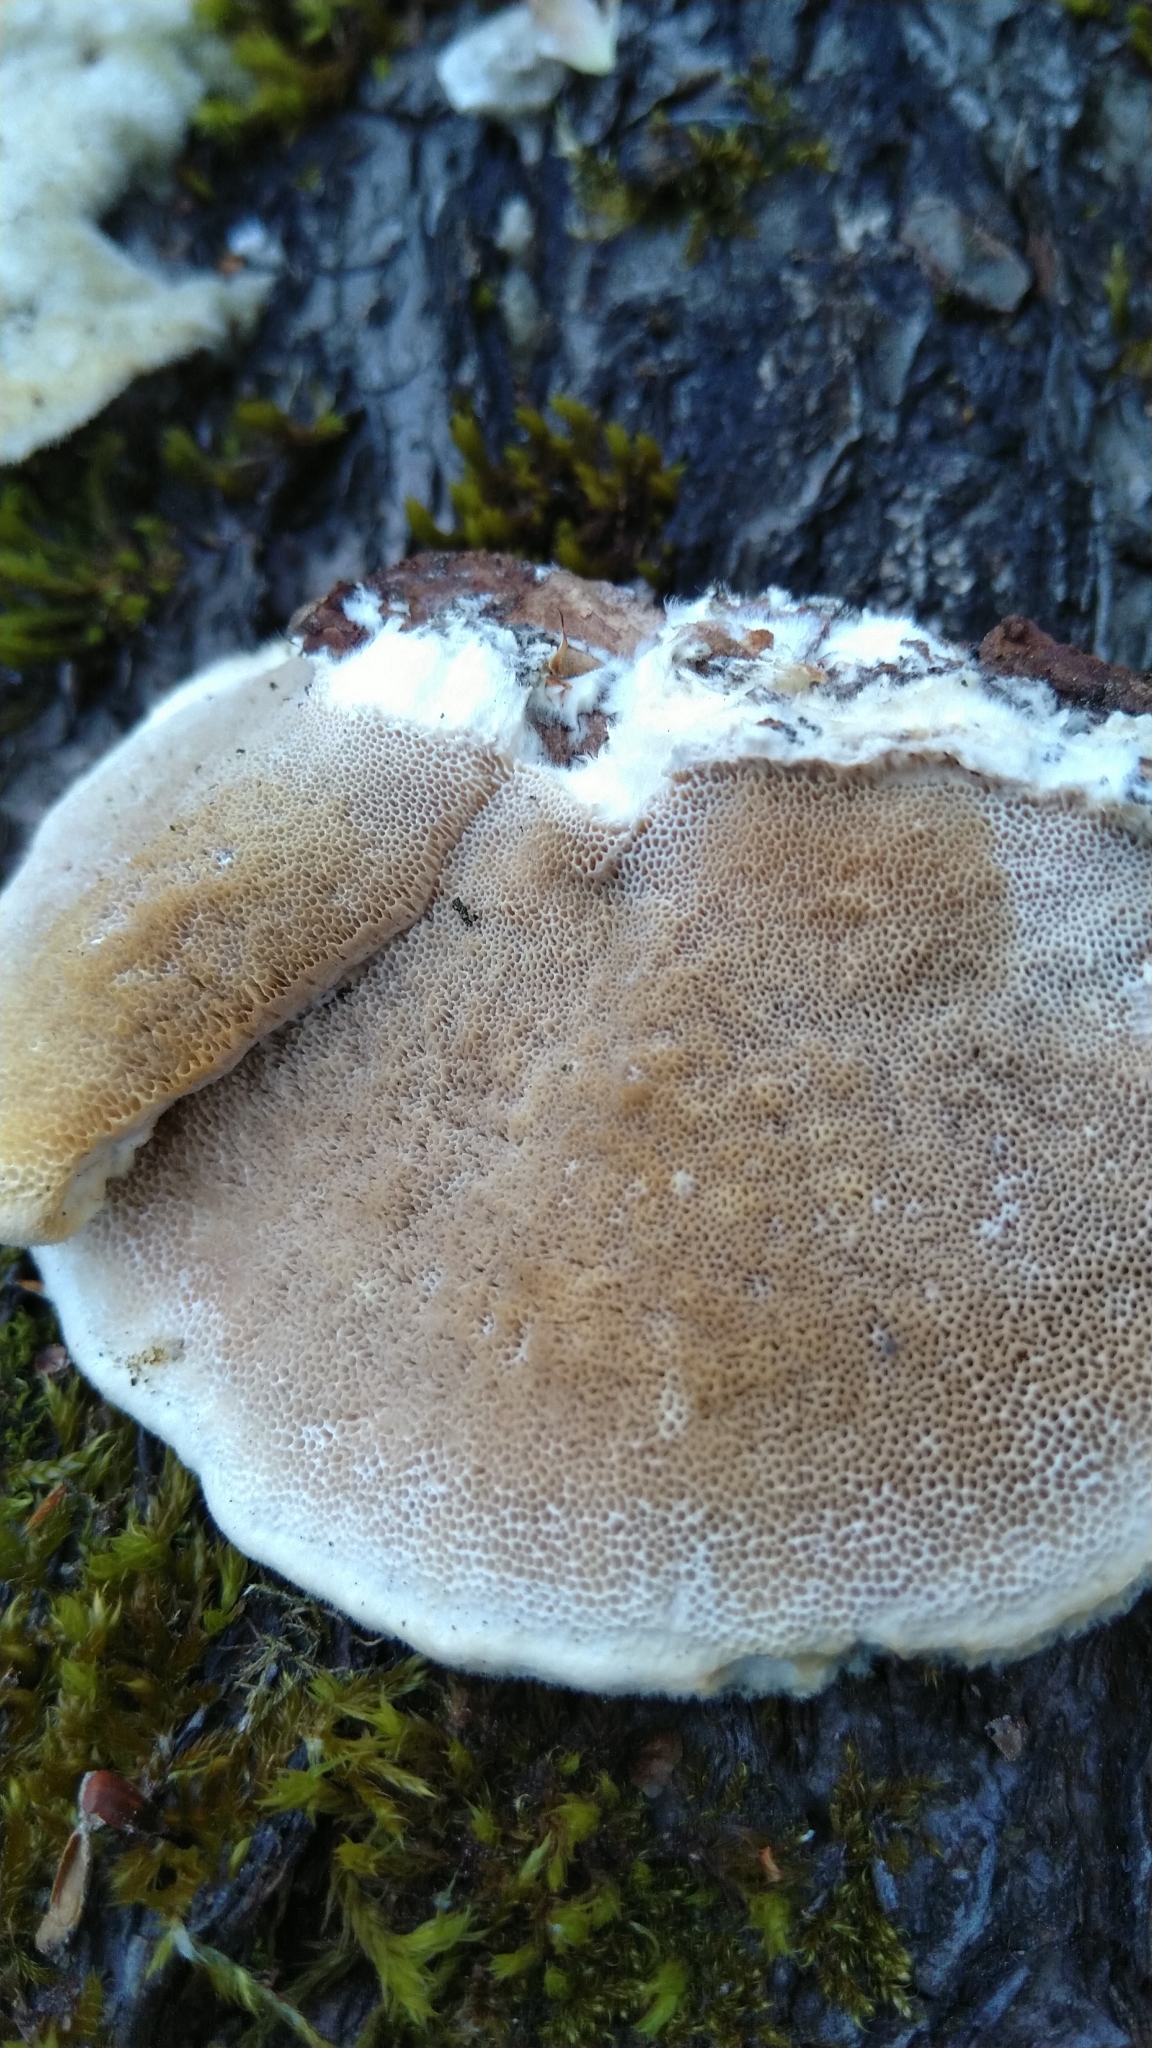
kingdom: Fungi
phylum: Basidiomycota
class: Agaricomycetes
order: Polyporales
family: Polyporaceae
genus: Trametes
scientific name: Trametes hirsuta
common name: Hairy bracket
